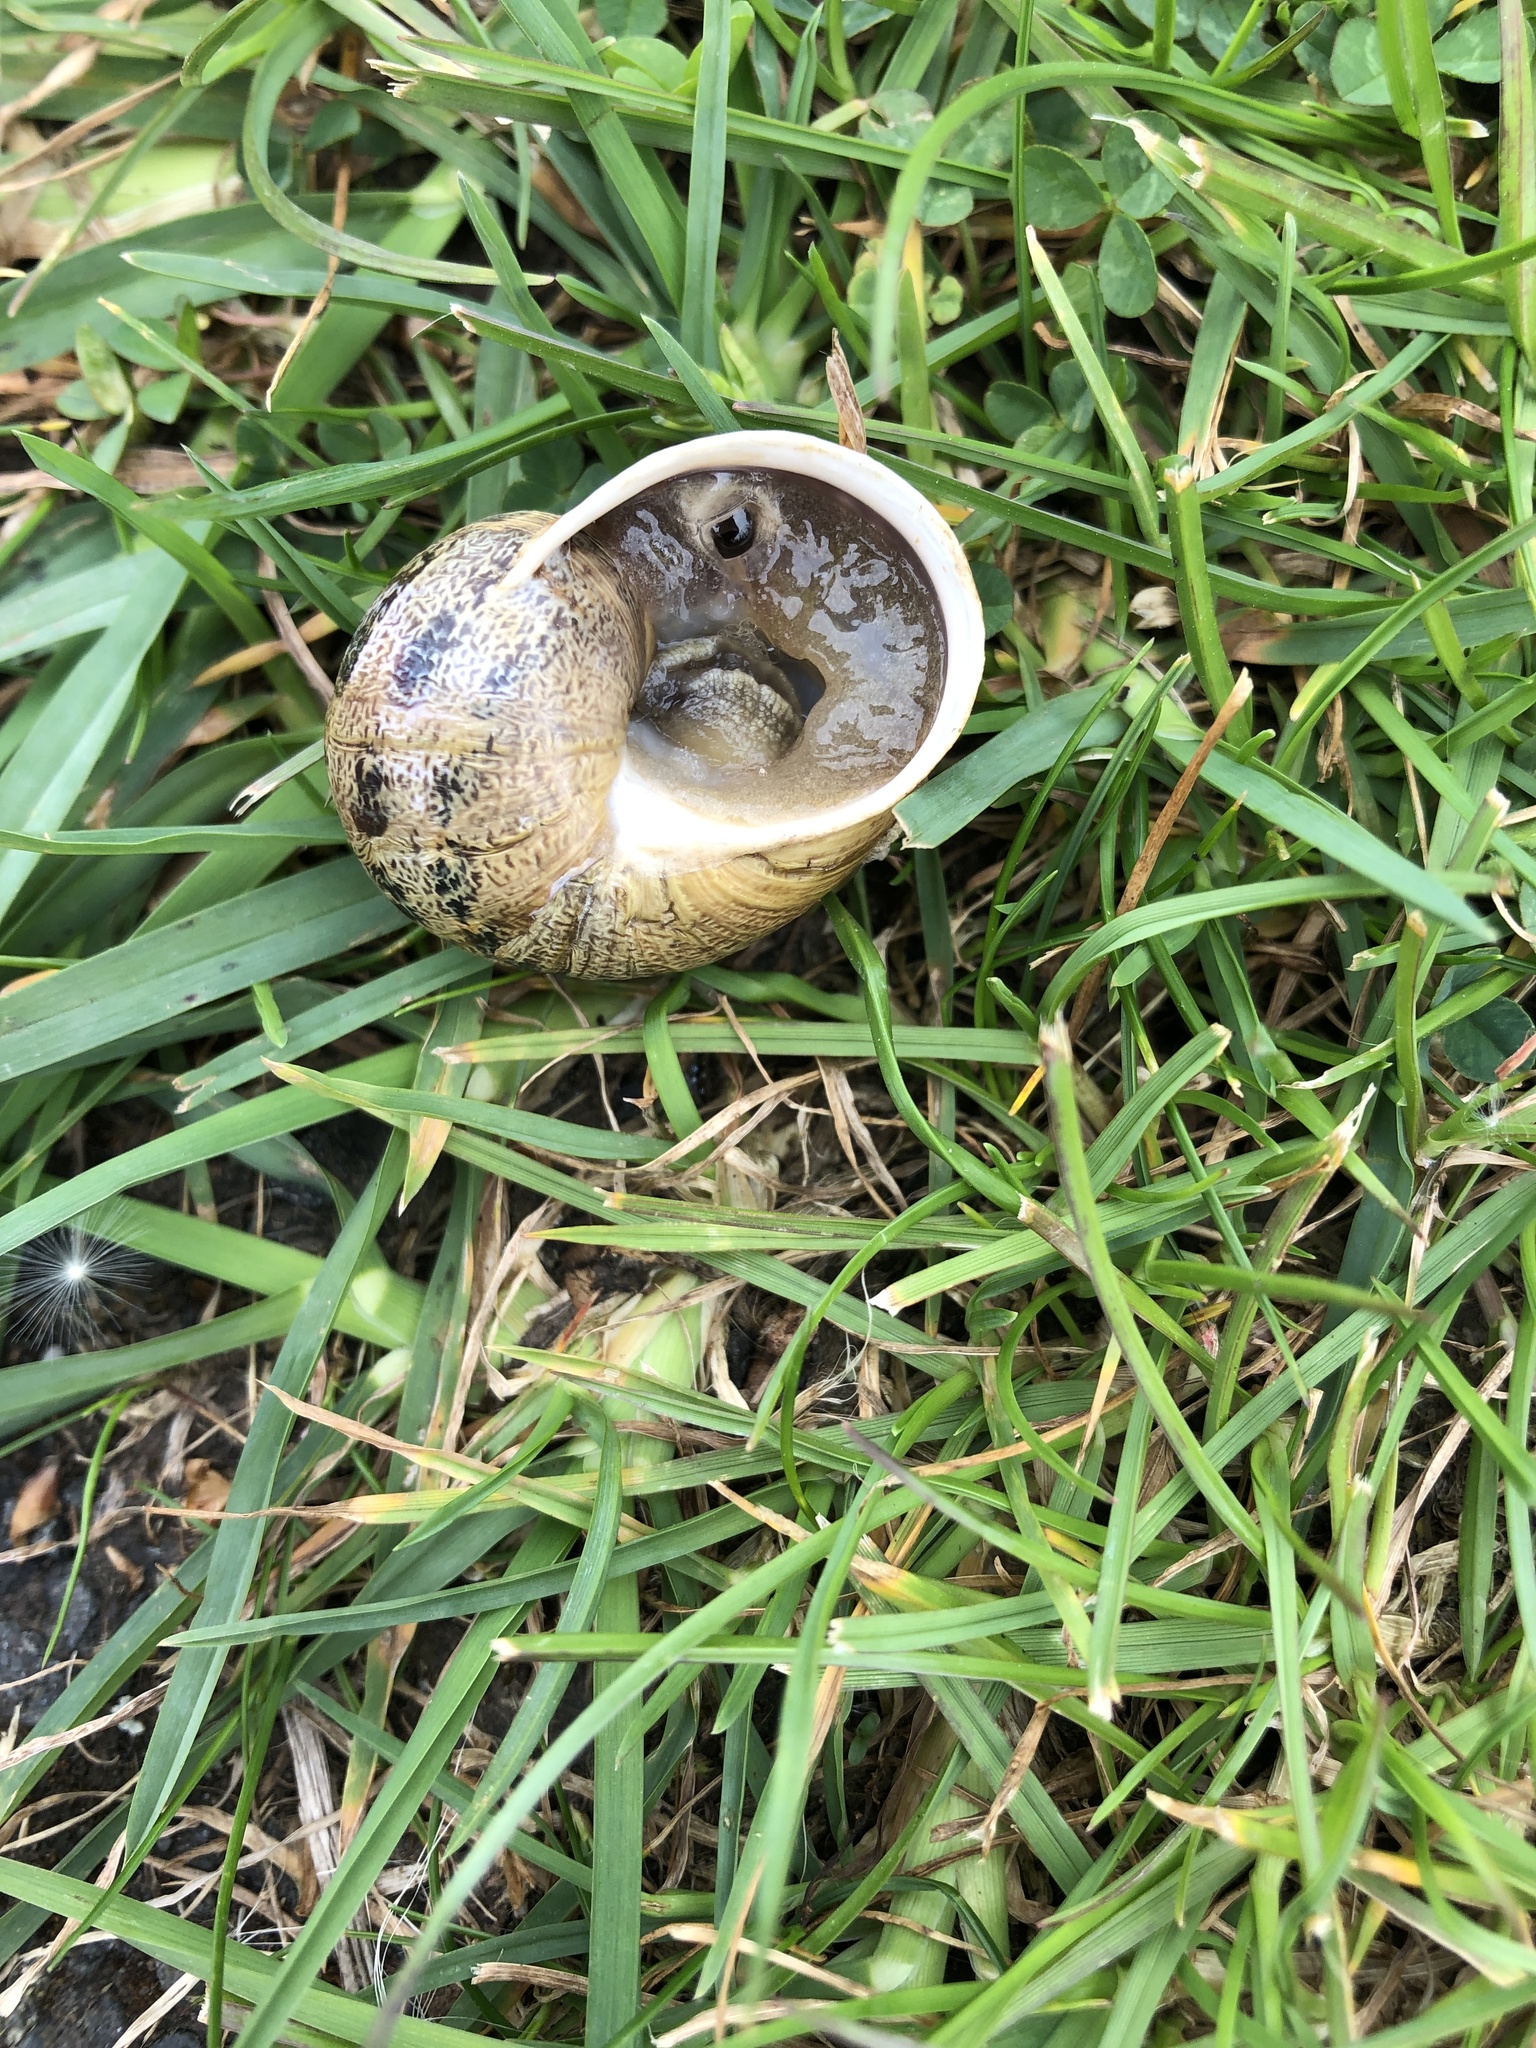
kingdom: Animalia
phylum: Mollusca
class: Gastropoda
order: Stylommatophora
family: Helicidae
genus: Cornu
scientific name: Cornu aspersum
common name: Brown garden snail
